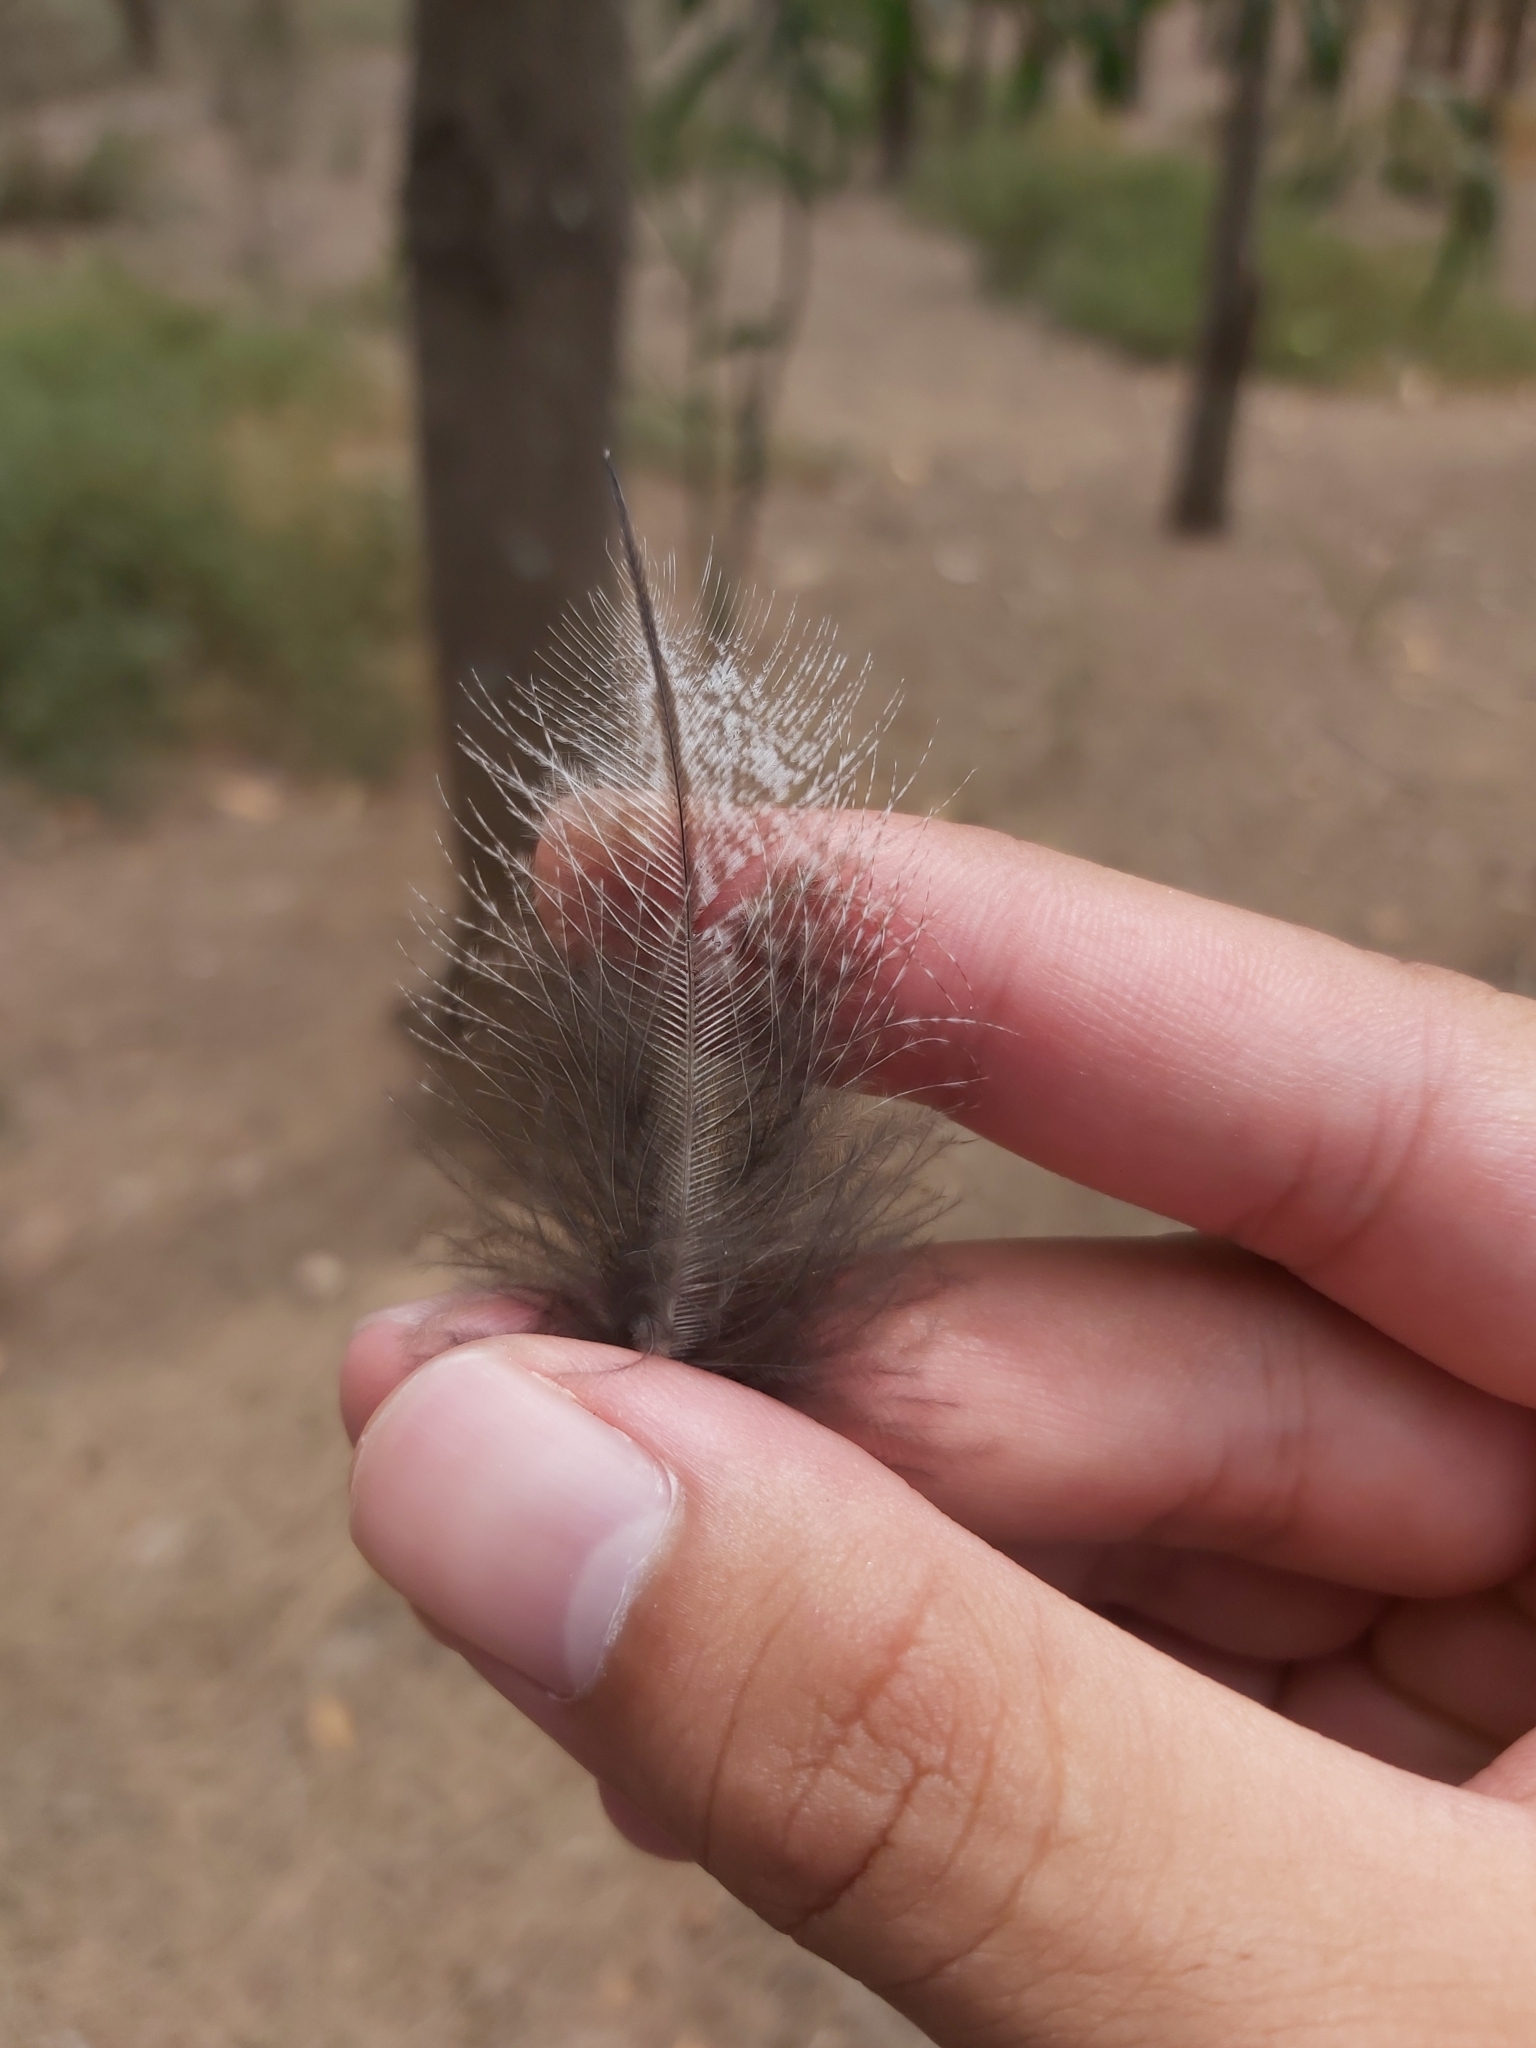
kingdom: Animalia
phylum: Chordata
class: Aves
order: Caprimulgiformes
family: Podargidae
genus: Podargus
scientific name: Podargus strigoides
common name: Tawny frogmouth
